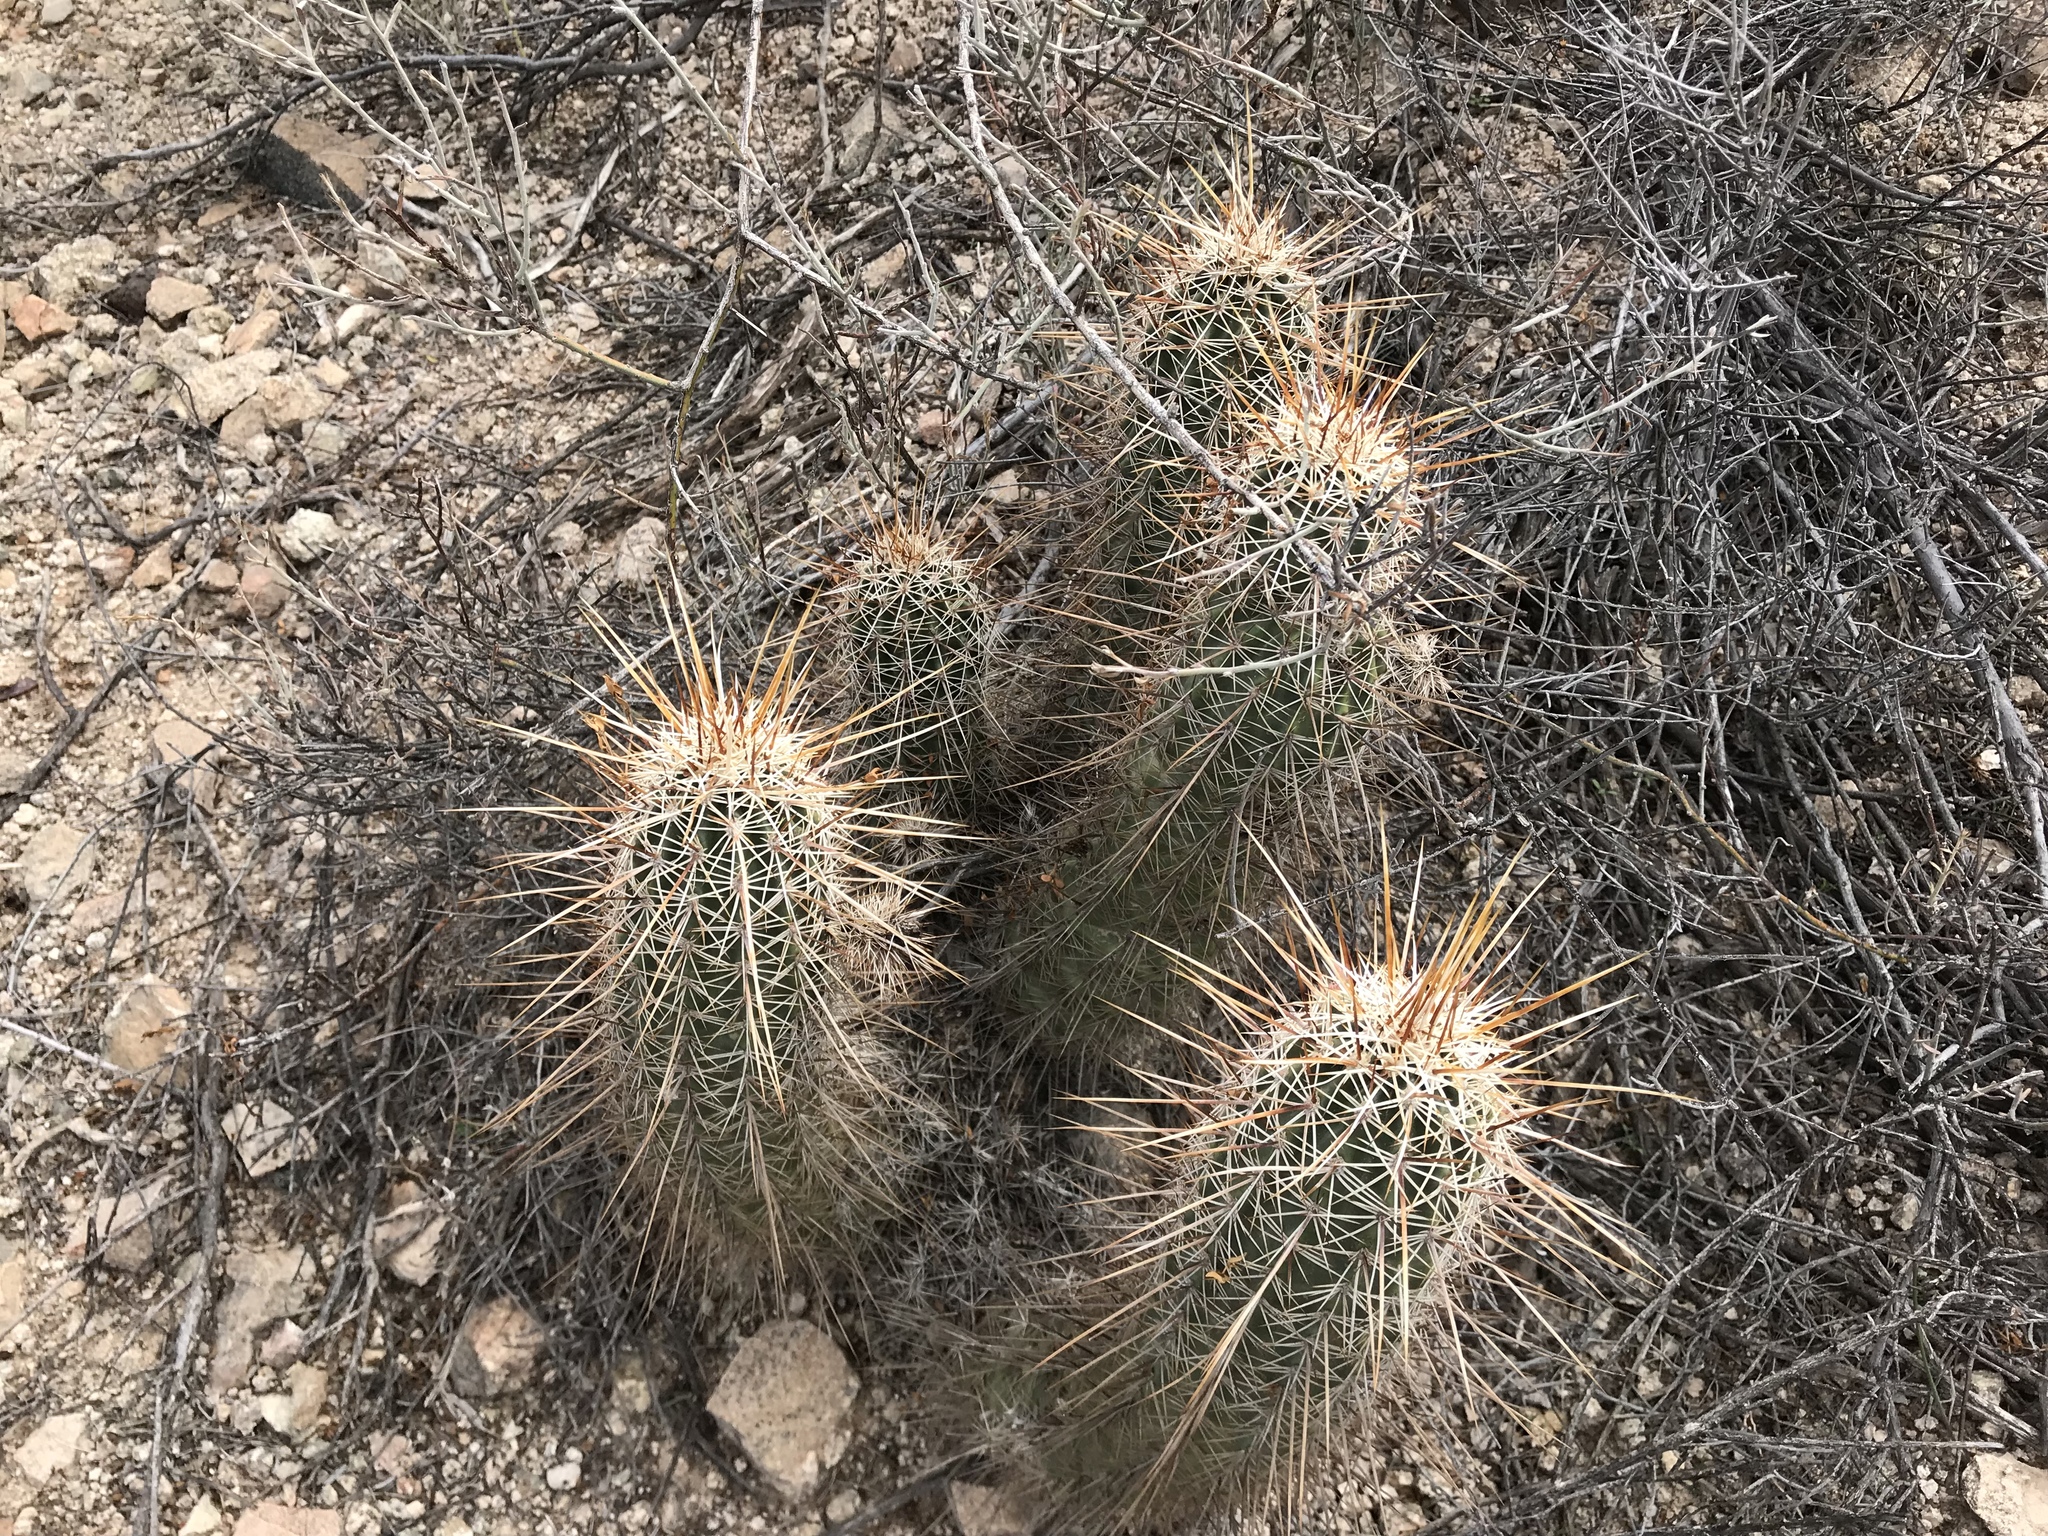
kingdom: Plantae
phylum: Tracheophyta
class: Magnoliopsida
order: Caryophyllales
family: Cactaceae
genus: Echinocereus
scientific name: Echinocereus fasciculatus
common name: Bundle hedgehog
